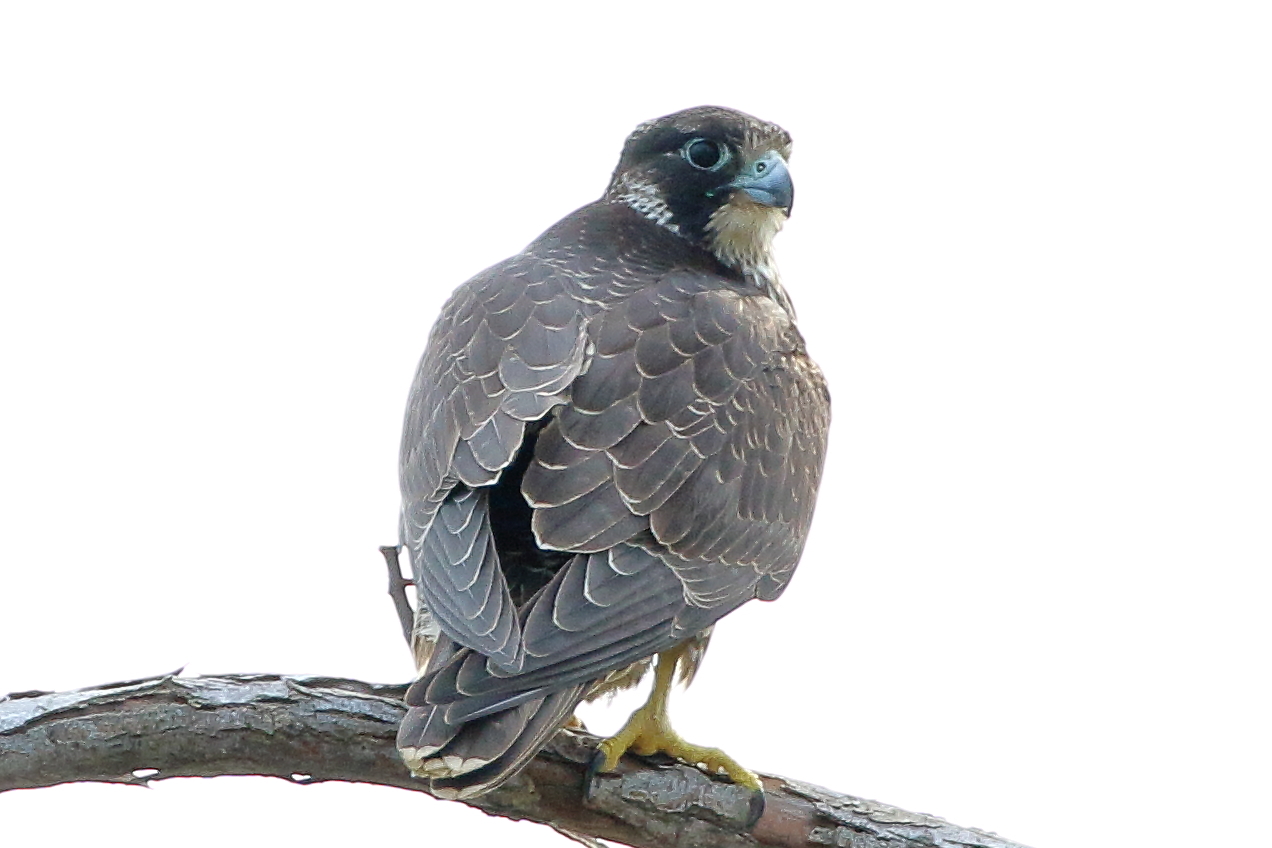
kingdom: Animalia
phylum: Chordata
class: Aves
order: Falconiformes
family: Falconidae
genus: Falco
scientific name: Falco peregrinus
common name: Peregrine falcon
